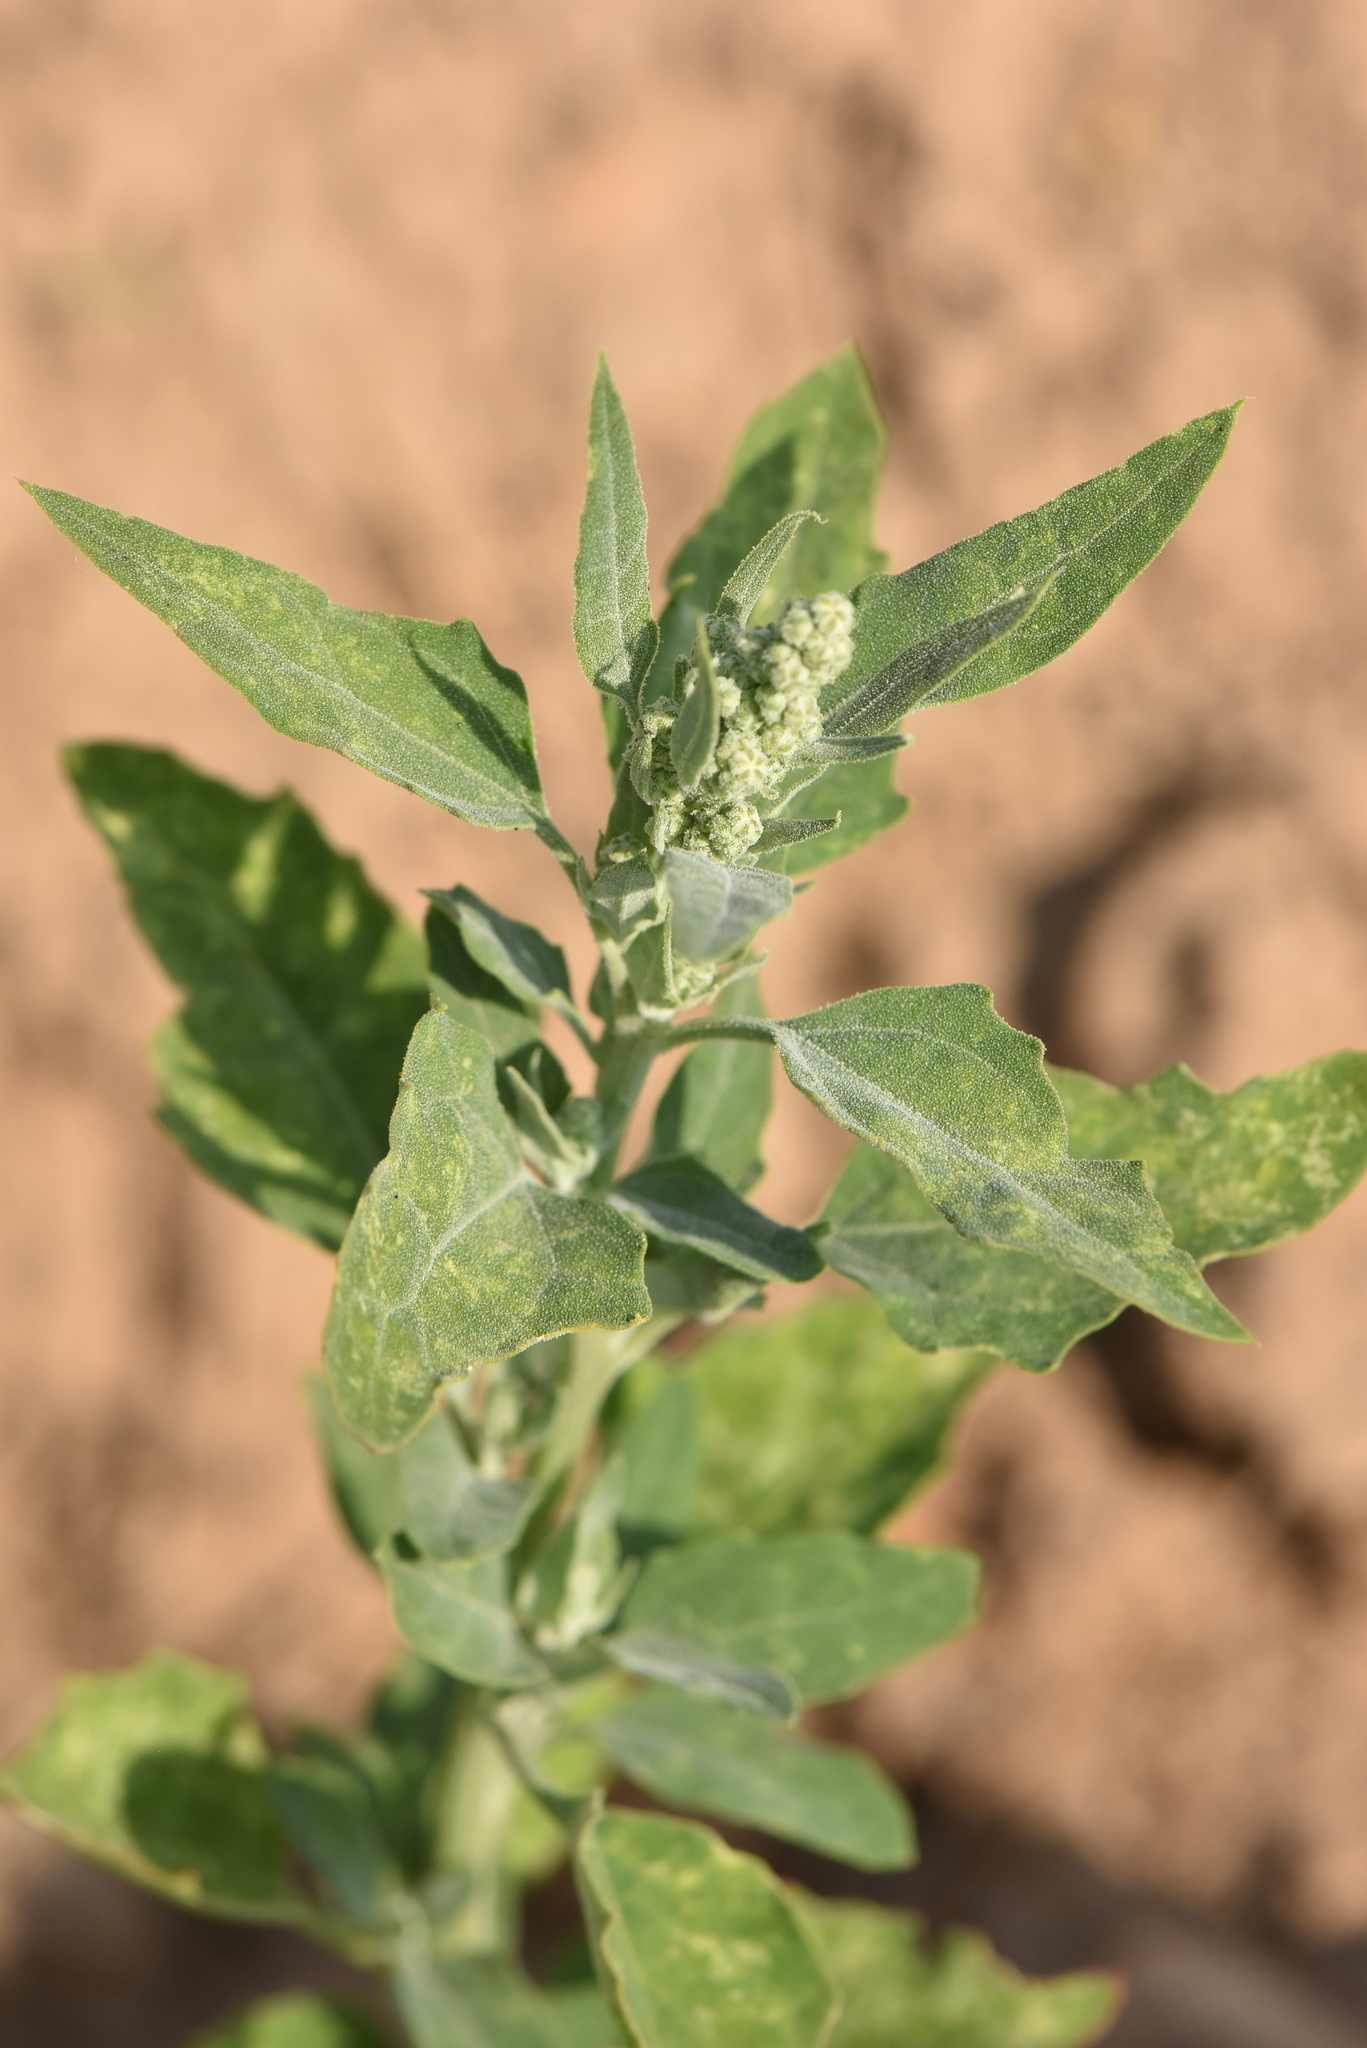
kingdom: Plantae
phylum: Tracheophyta
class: Magnoliopsida
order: Caryophyllales
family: Amaranthaceae
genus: Chenopodium
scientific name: Chenopodium album
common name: Fat-hen
